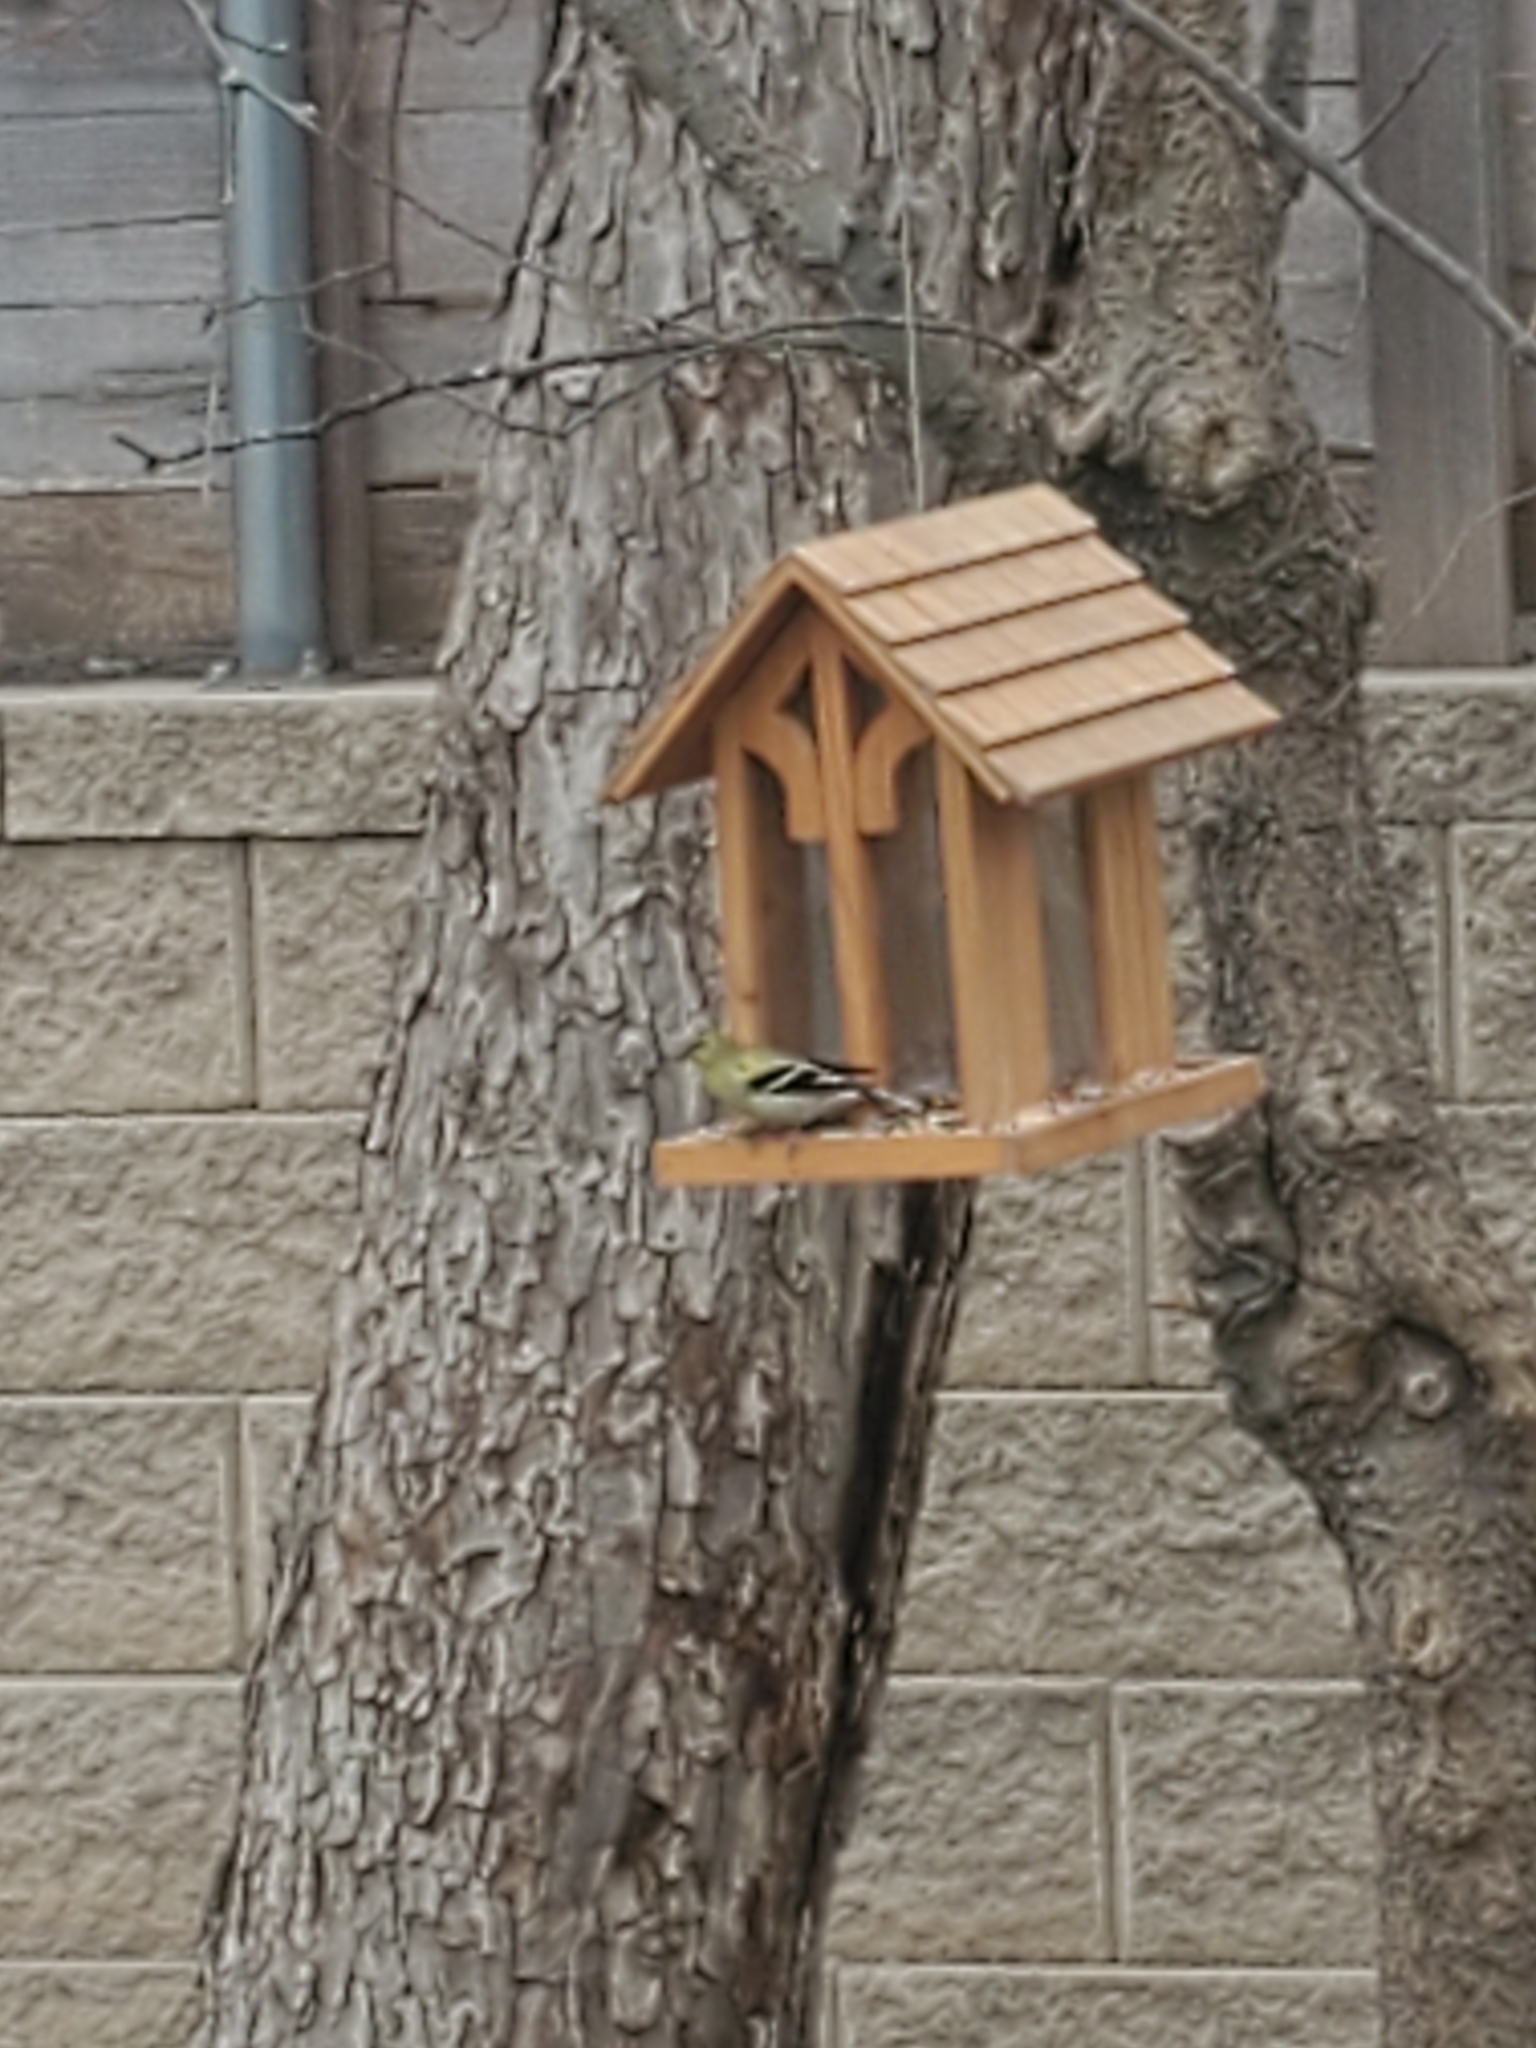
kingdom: Animalia
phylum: Chordata
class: Aves
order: Passeriformes
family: Fringillidae
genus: Spinus
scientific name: Spinus tristis
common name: American goldfinch
